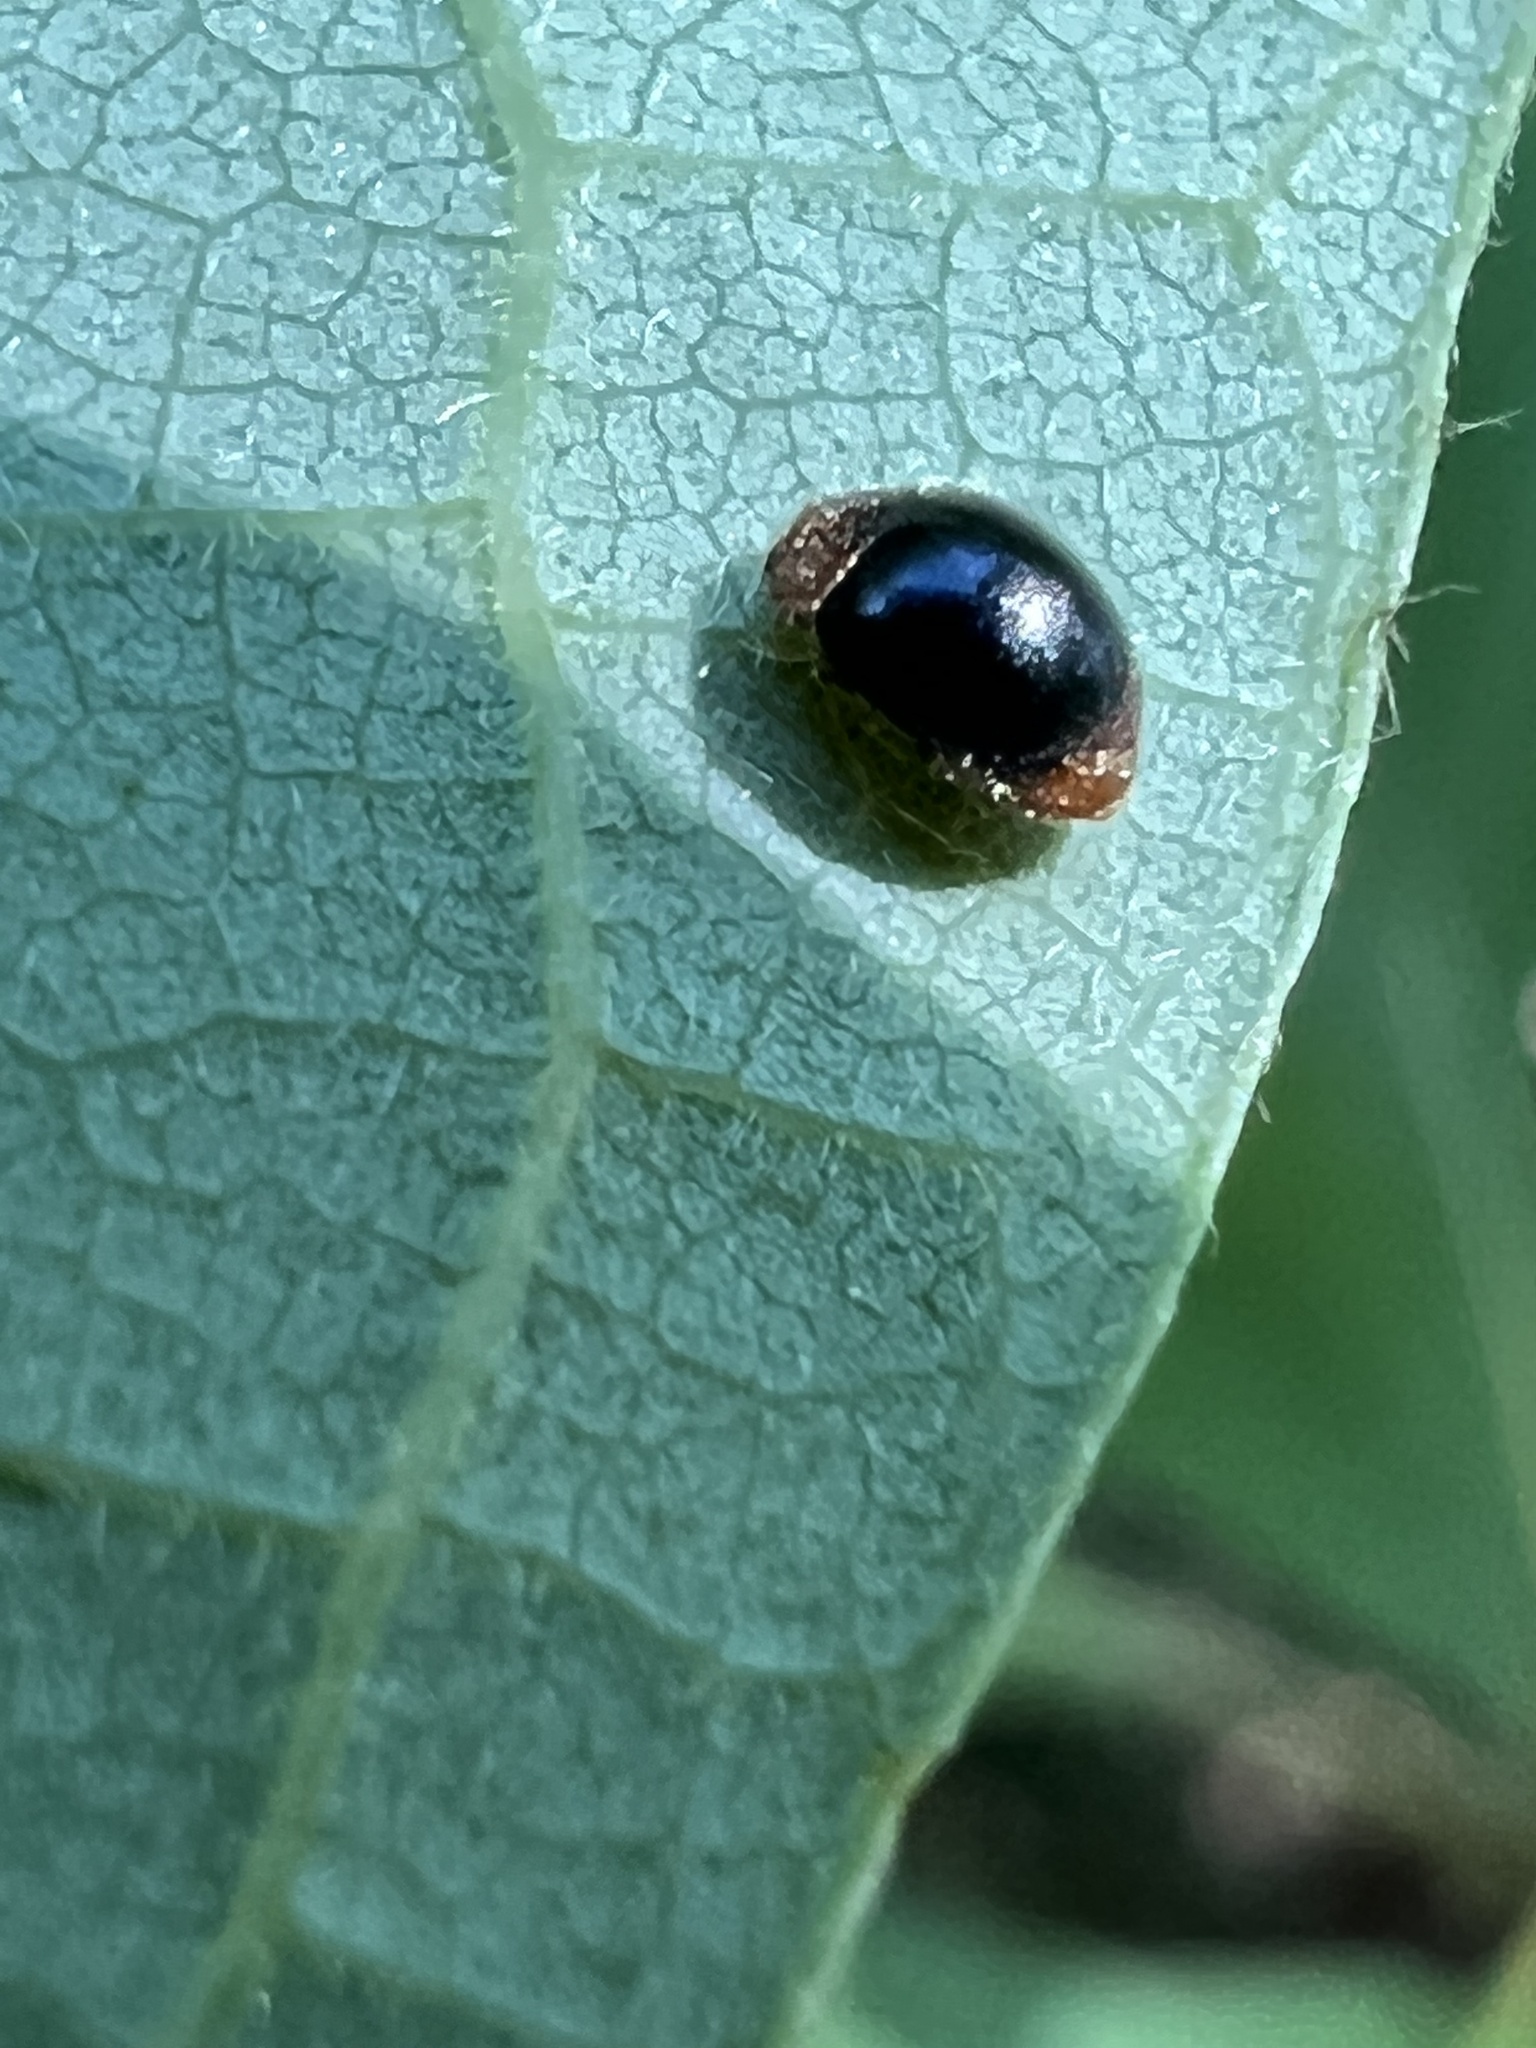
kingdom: Animalia
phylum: Arthropoda
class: Insecta
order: Coleoptera
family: Coccinellidae
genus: Cryptolaemus
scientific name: Cryptolaemus montrouzieri
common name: Mealybug destroyer
